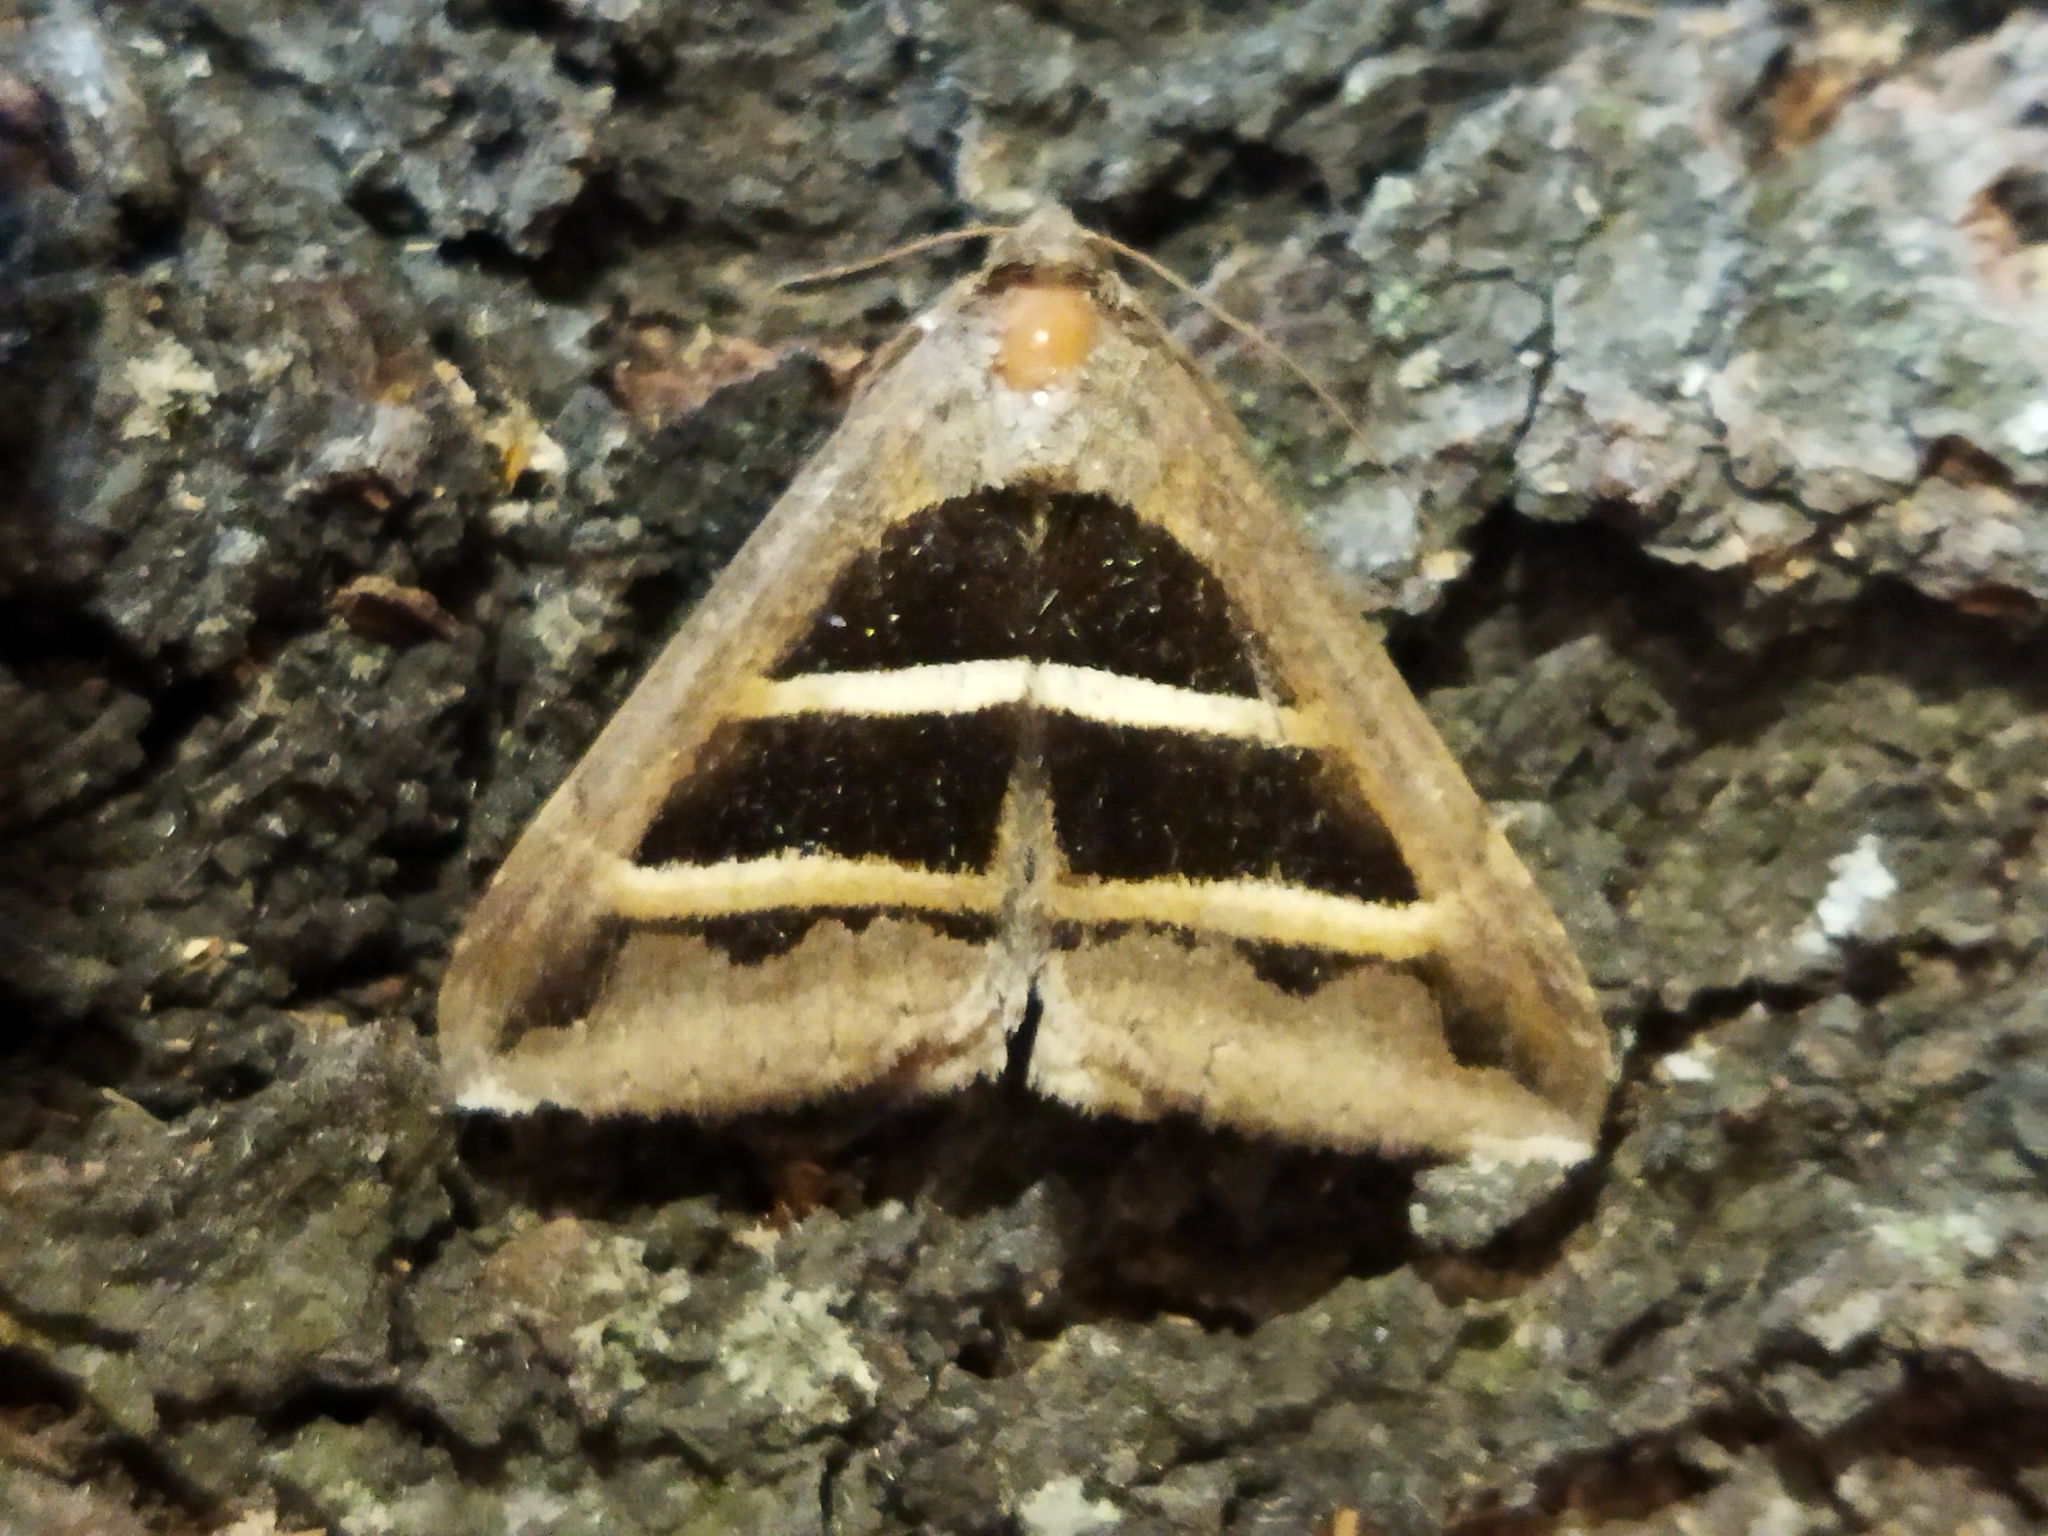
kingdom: Animalia
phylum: Arthropoda
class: Insecta
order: Lepidoptera
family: Erebidae
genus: Grammodes
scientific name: Grammodes bifasciata
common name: Parallel lines
